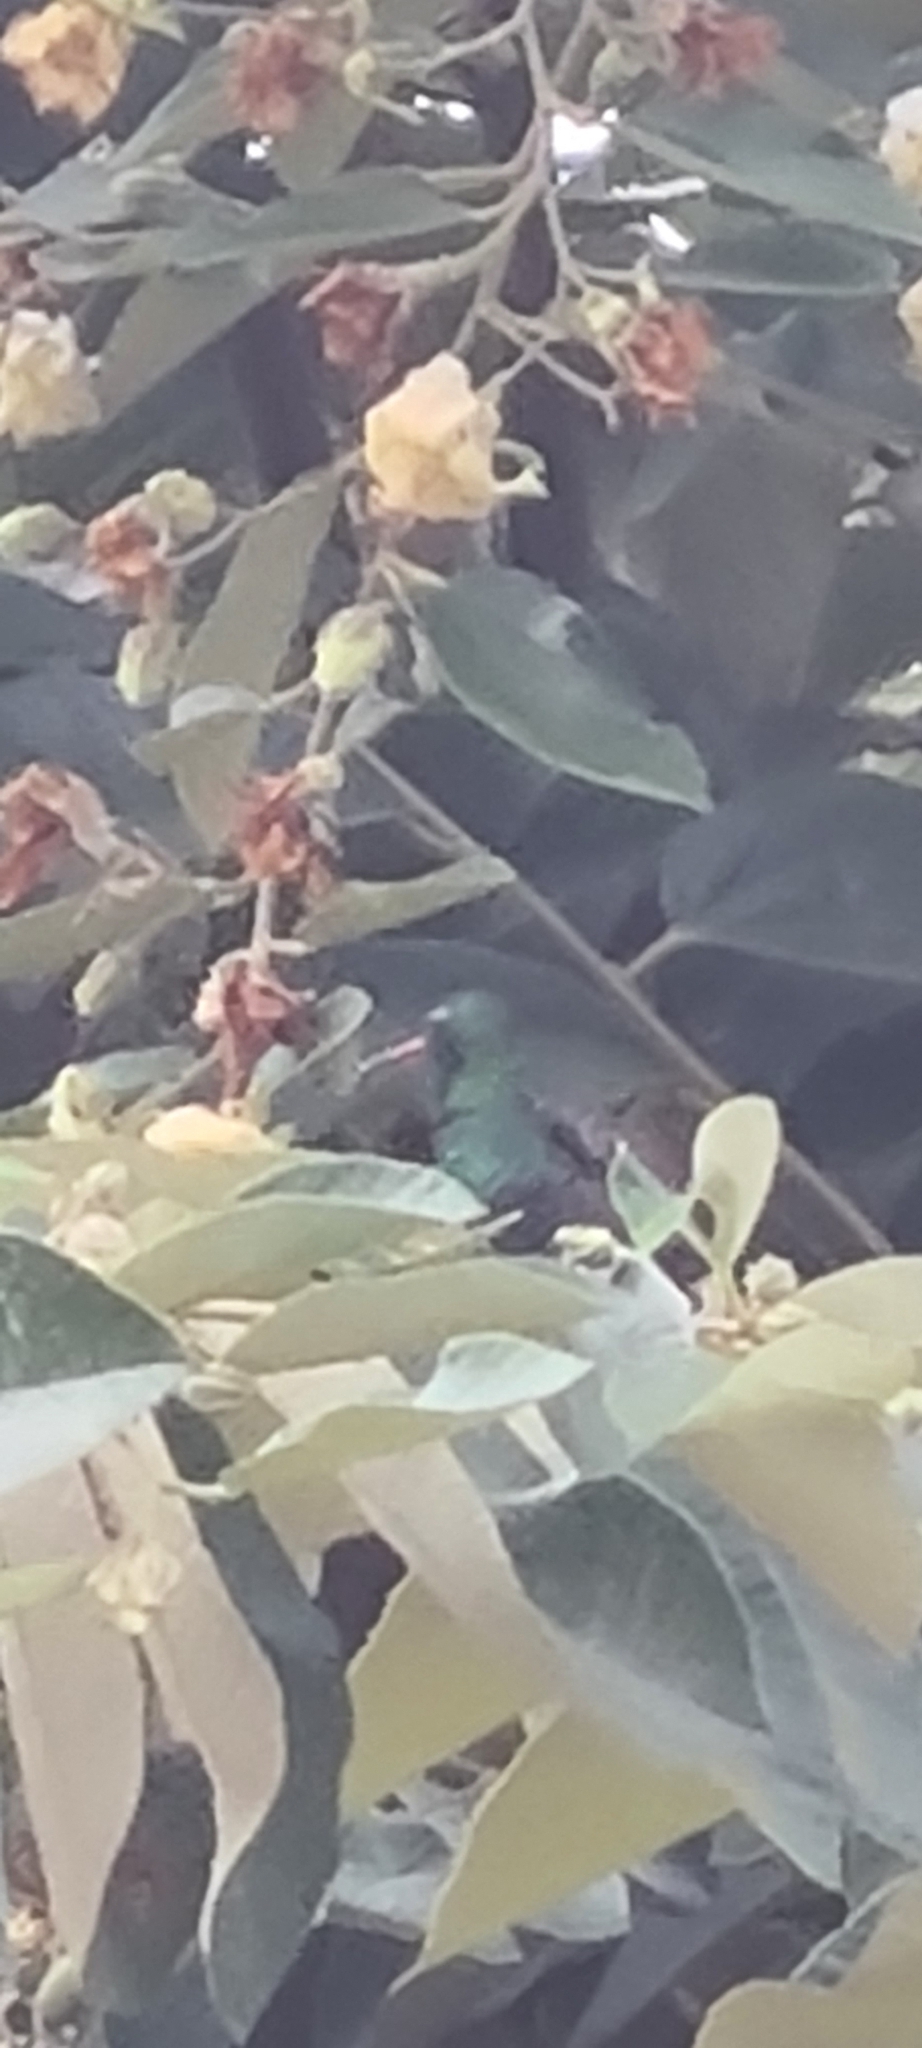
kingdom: Animalia
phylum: Chordata
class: Aves
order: Apodiformes
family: Trochilidae
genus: Chlorostilbon
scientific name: Chlorostilbon lucidus
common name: Glittering-bellied emerald
